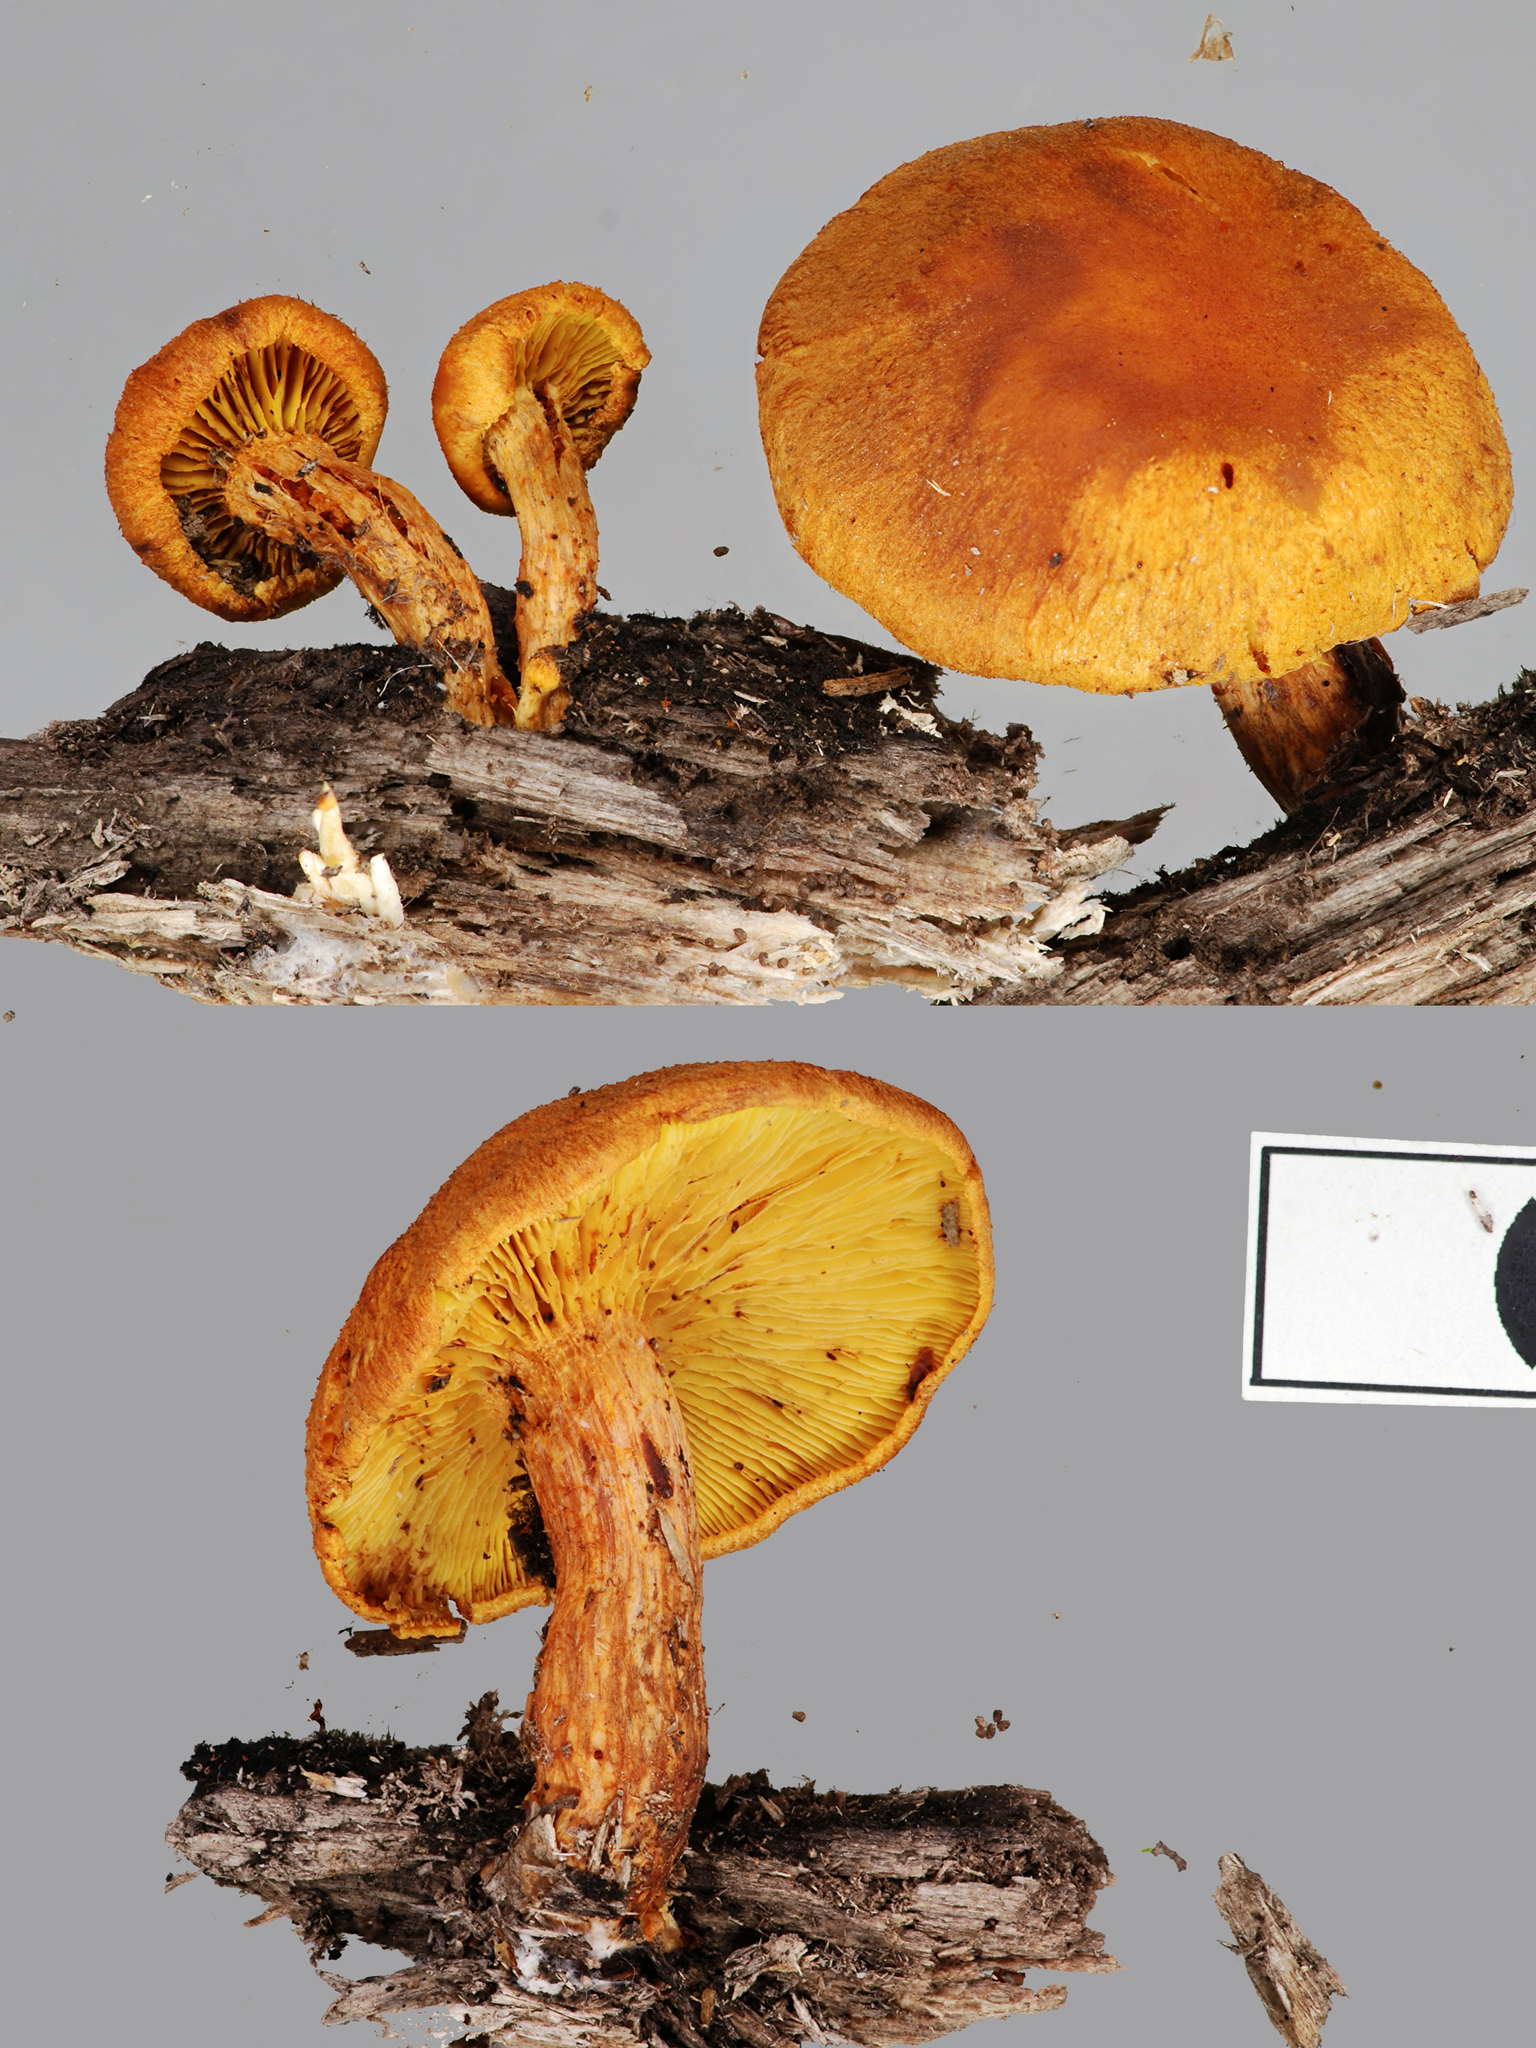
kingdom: Fungi
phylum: Basidiomycota
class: Agaricomycetes
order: Agaricales
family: Hymenogastraceae
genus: Gymnopilus
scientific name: Gymnopilus crociphyllus
